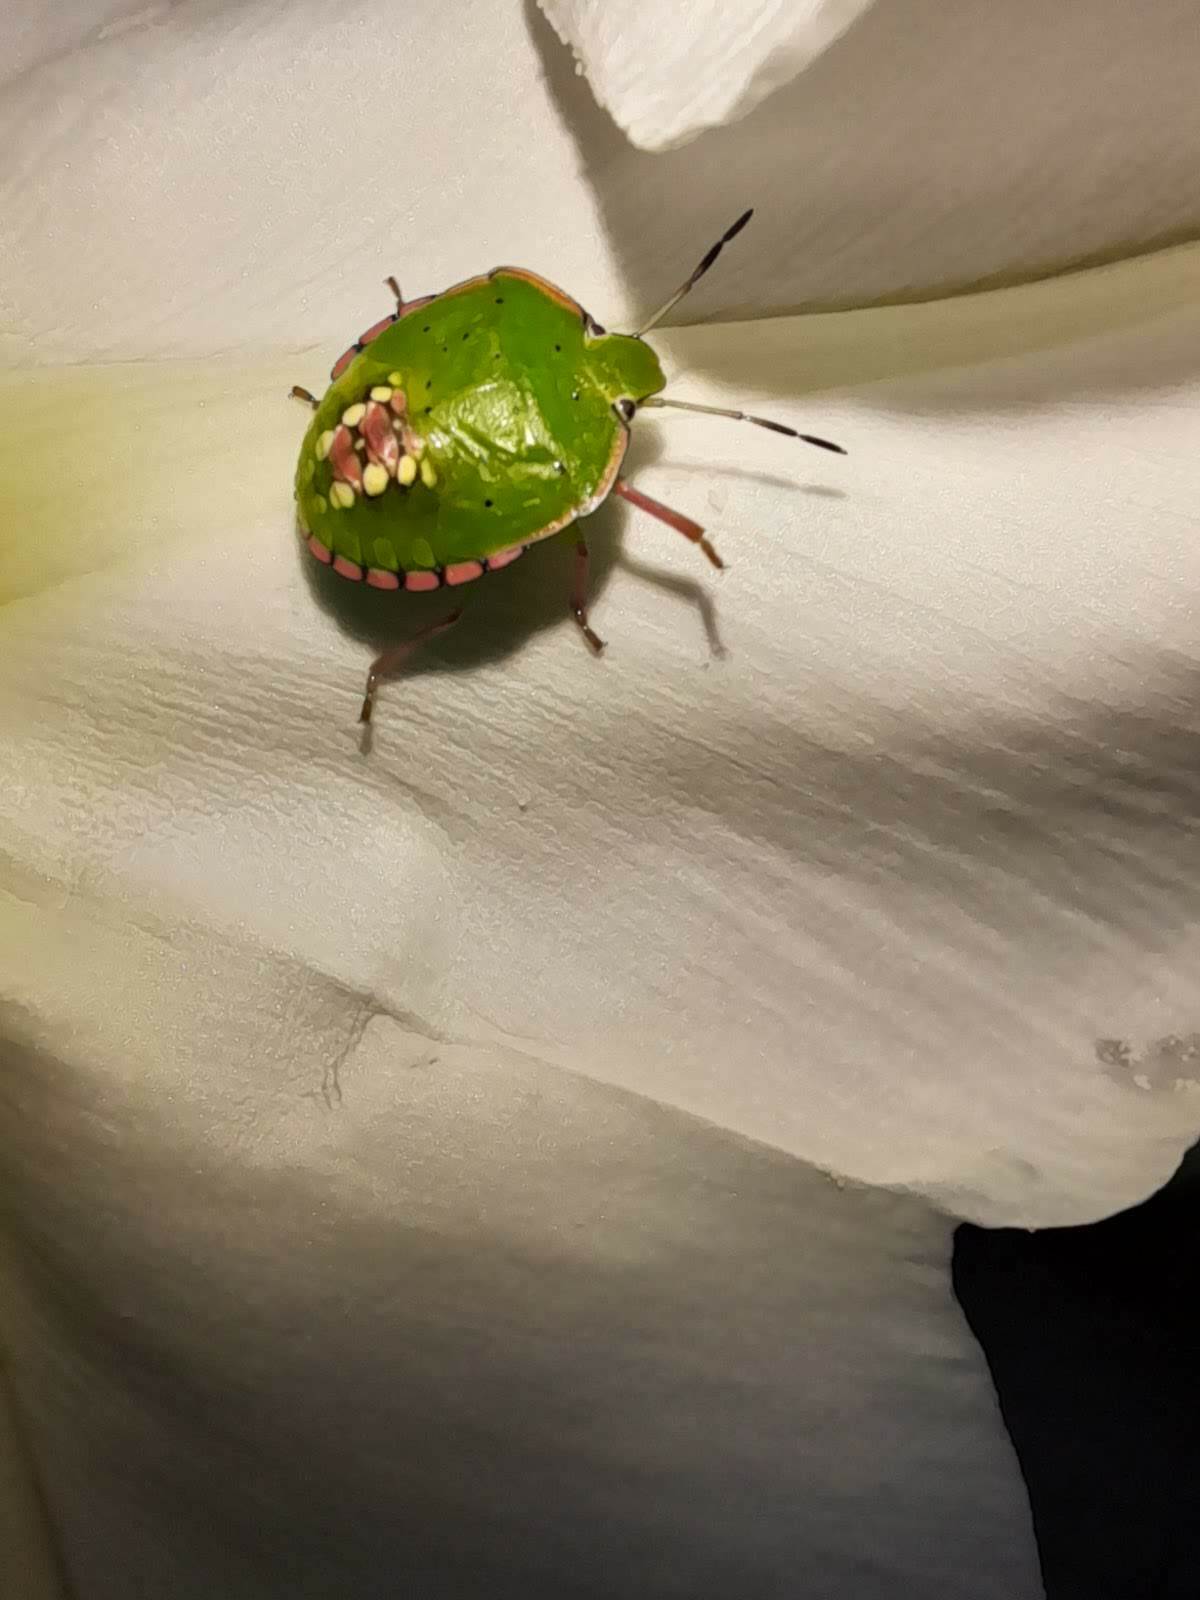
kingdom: Animalia
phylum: Arthropoda
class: Insecta
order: Hemiptera
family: Pentatomidae
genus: Nezara
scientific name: Nezara viridula
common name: Southern green stink bug
